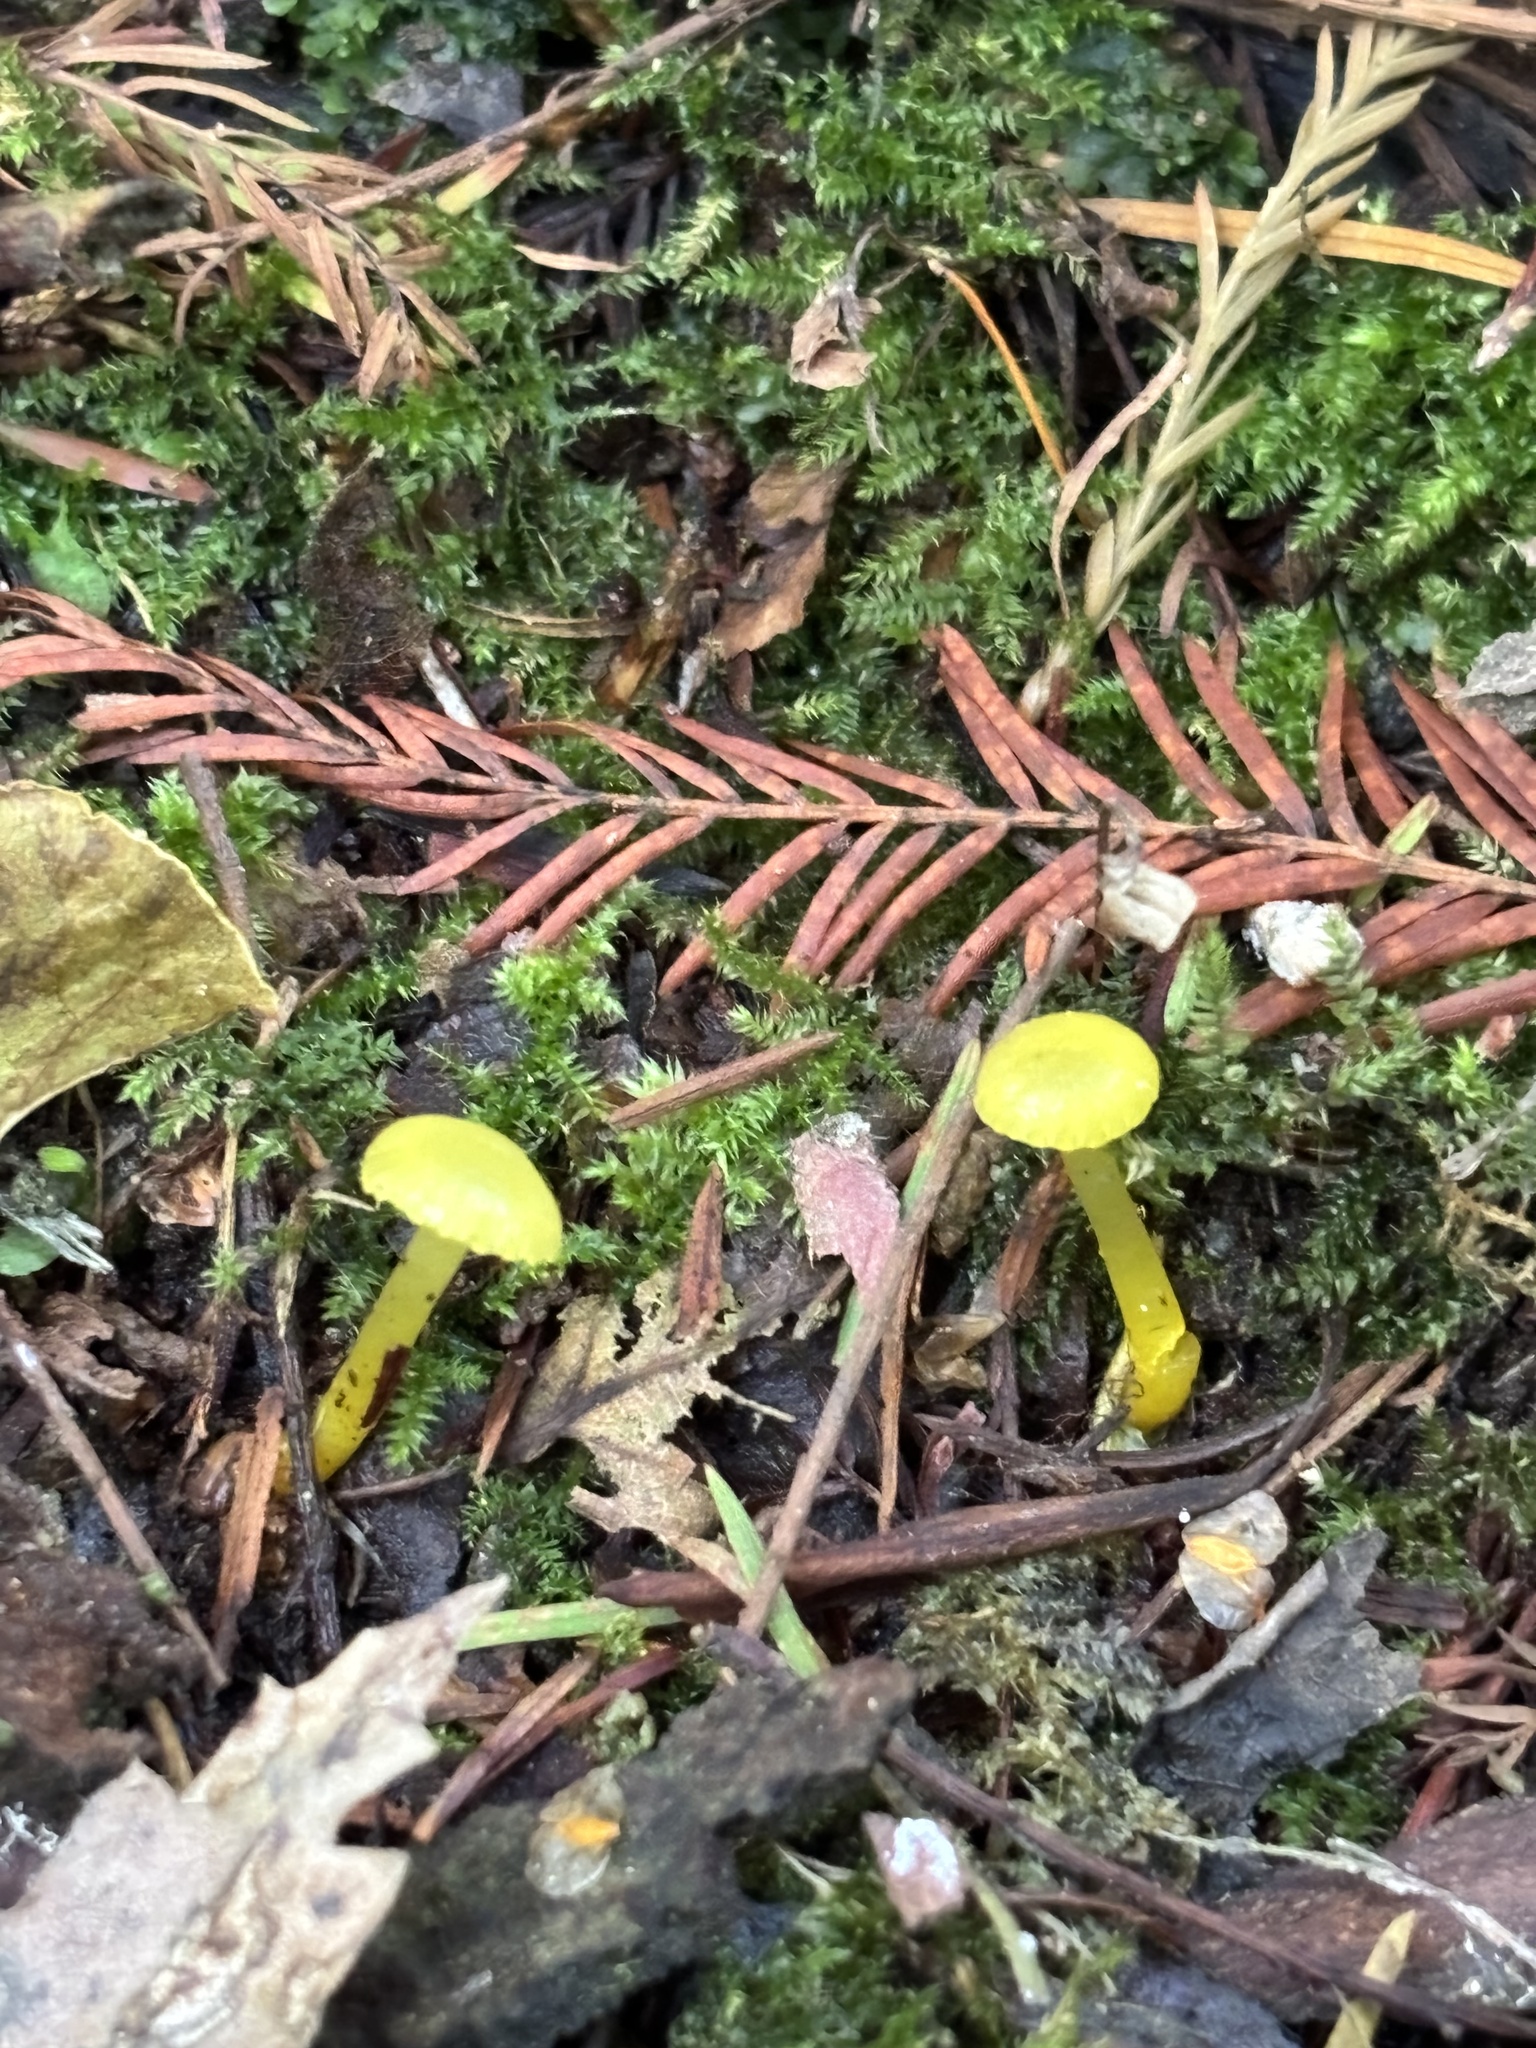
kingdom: Fungi
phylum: Basidiomycota
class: Agaricomycetes
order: Agaricales
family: Hygrophoraceae
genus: Gloioxanthomyces
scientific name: Gloioxanthomyces
